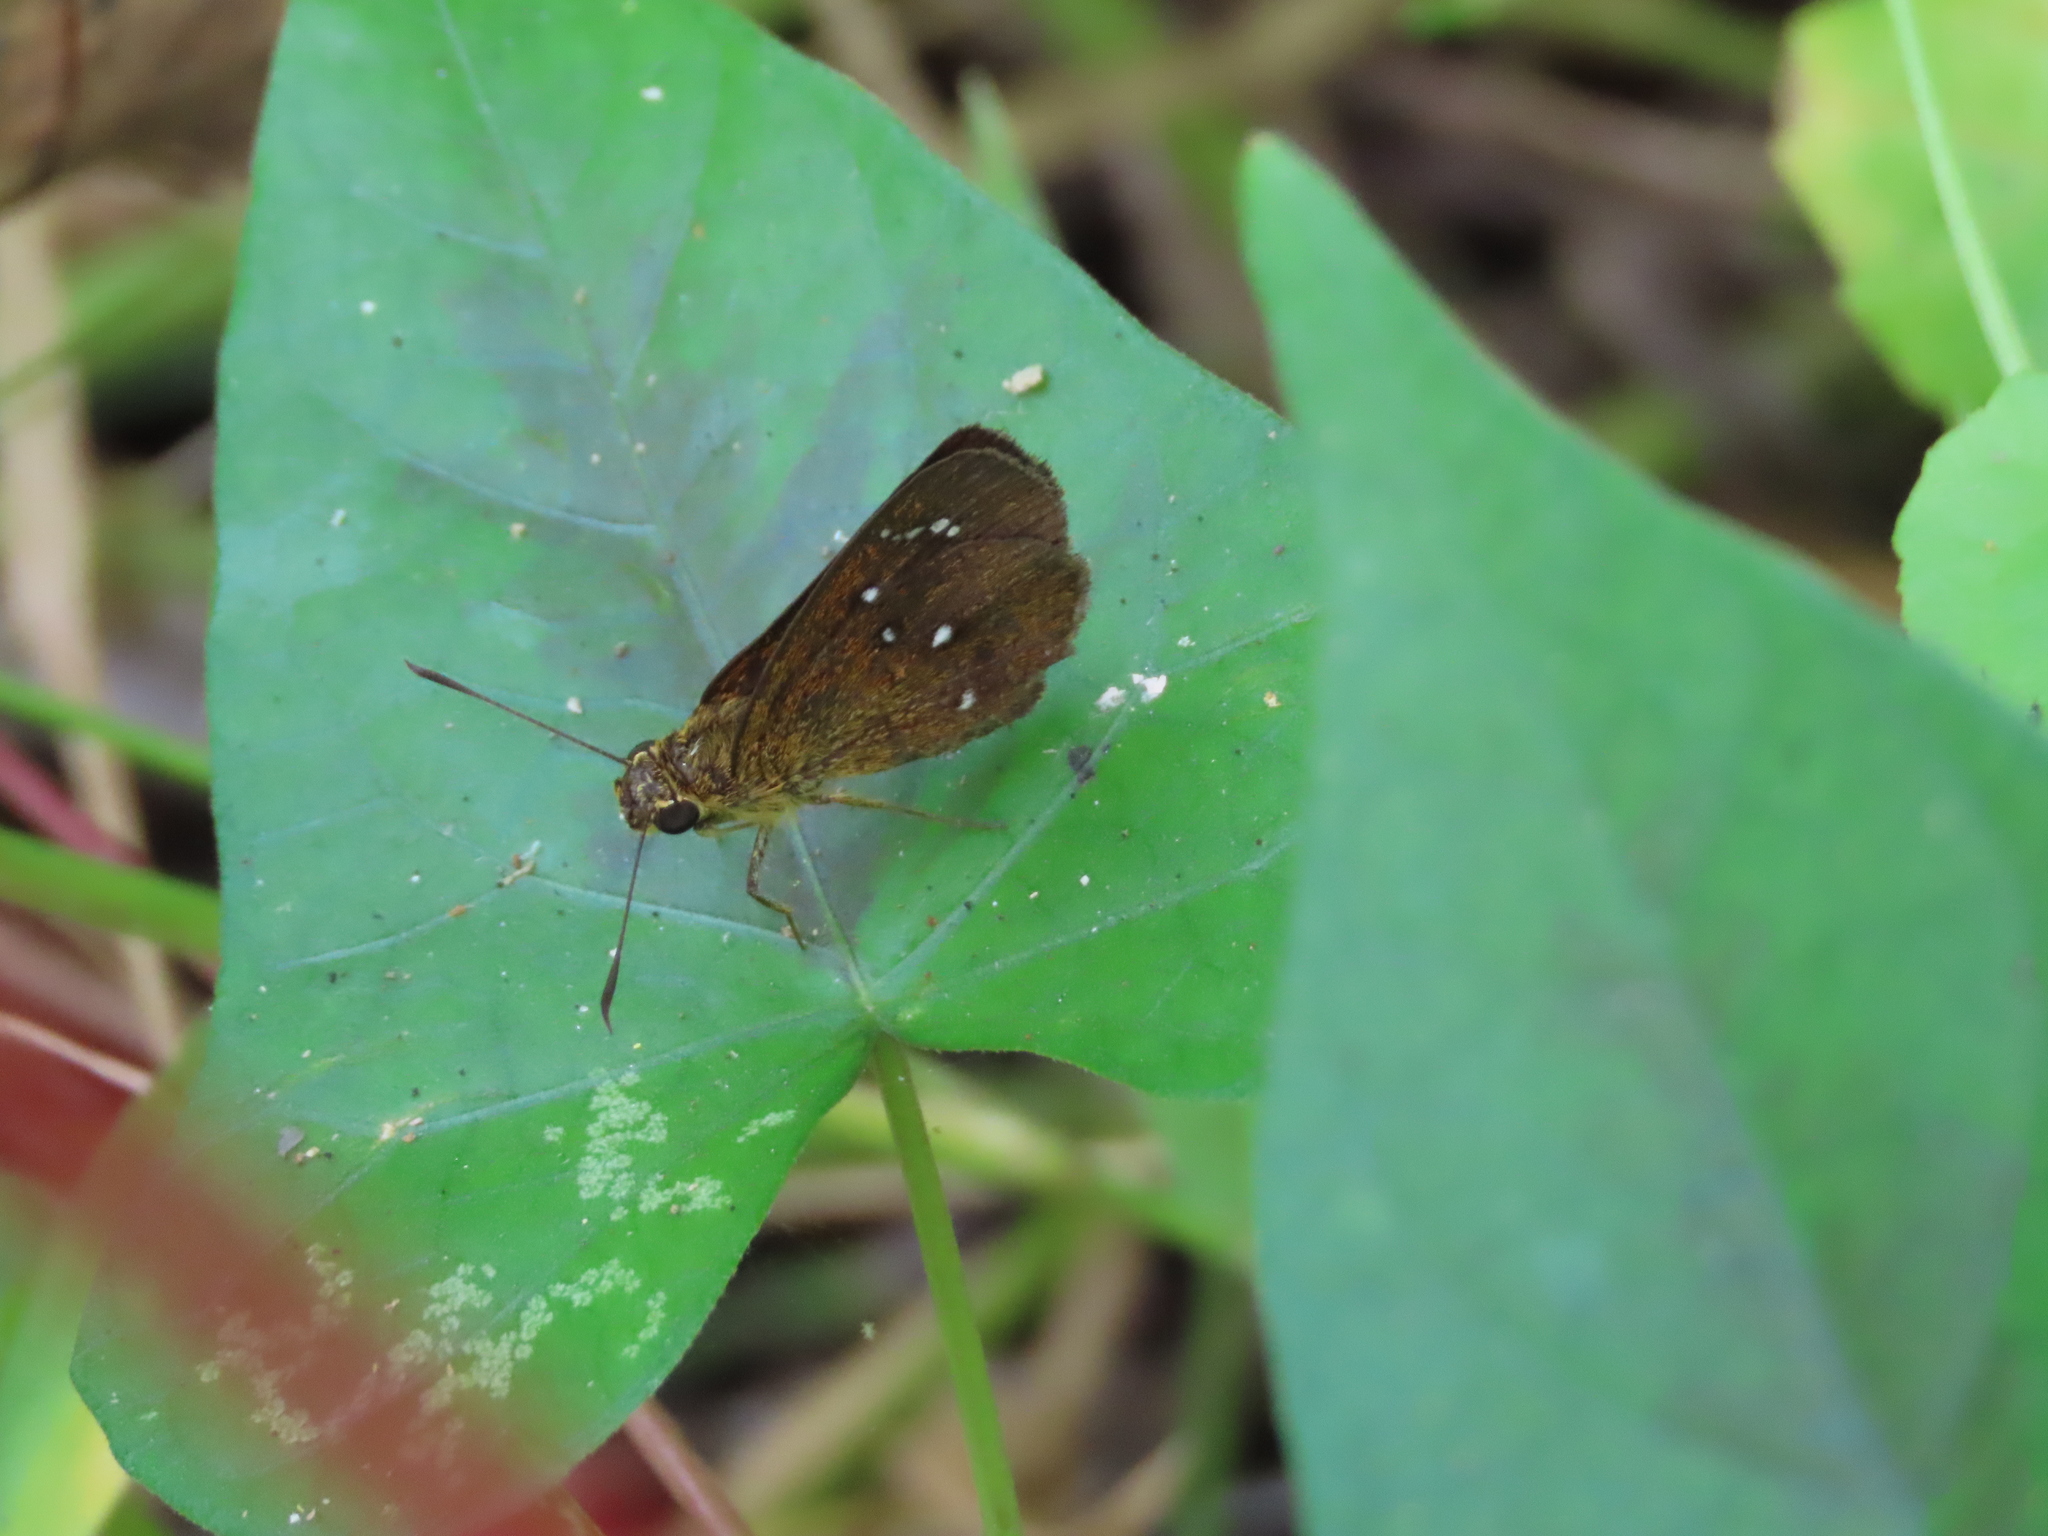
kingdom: Animalia
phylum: Arthropoda
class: Insecta
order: Lepidoptera
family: Hesperiidae
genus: Iambrix
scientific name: Iambrix salsala
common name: Chestnut bob
